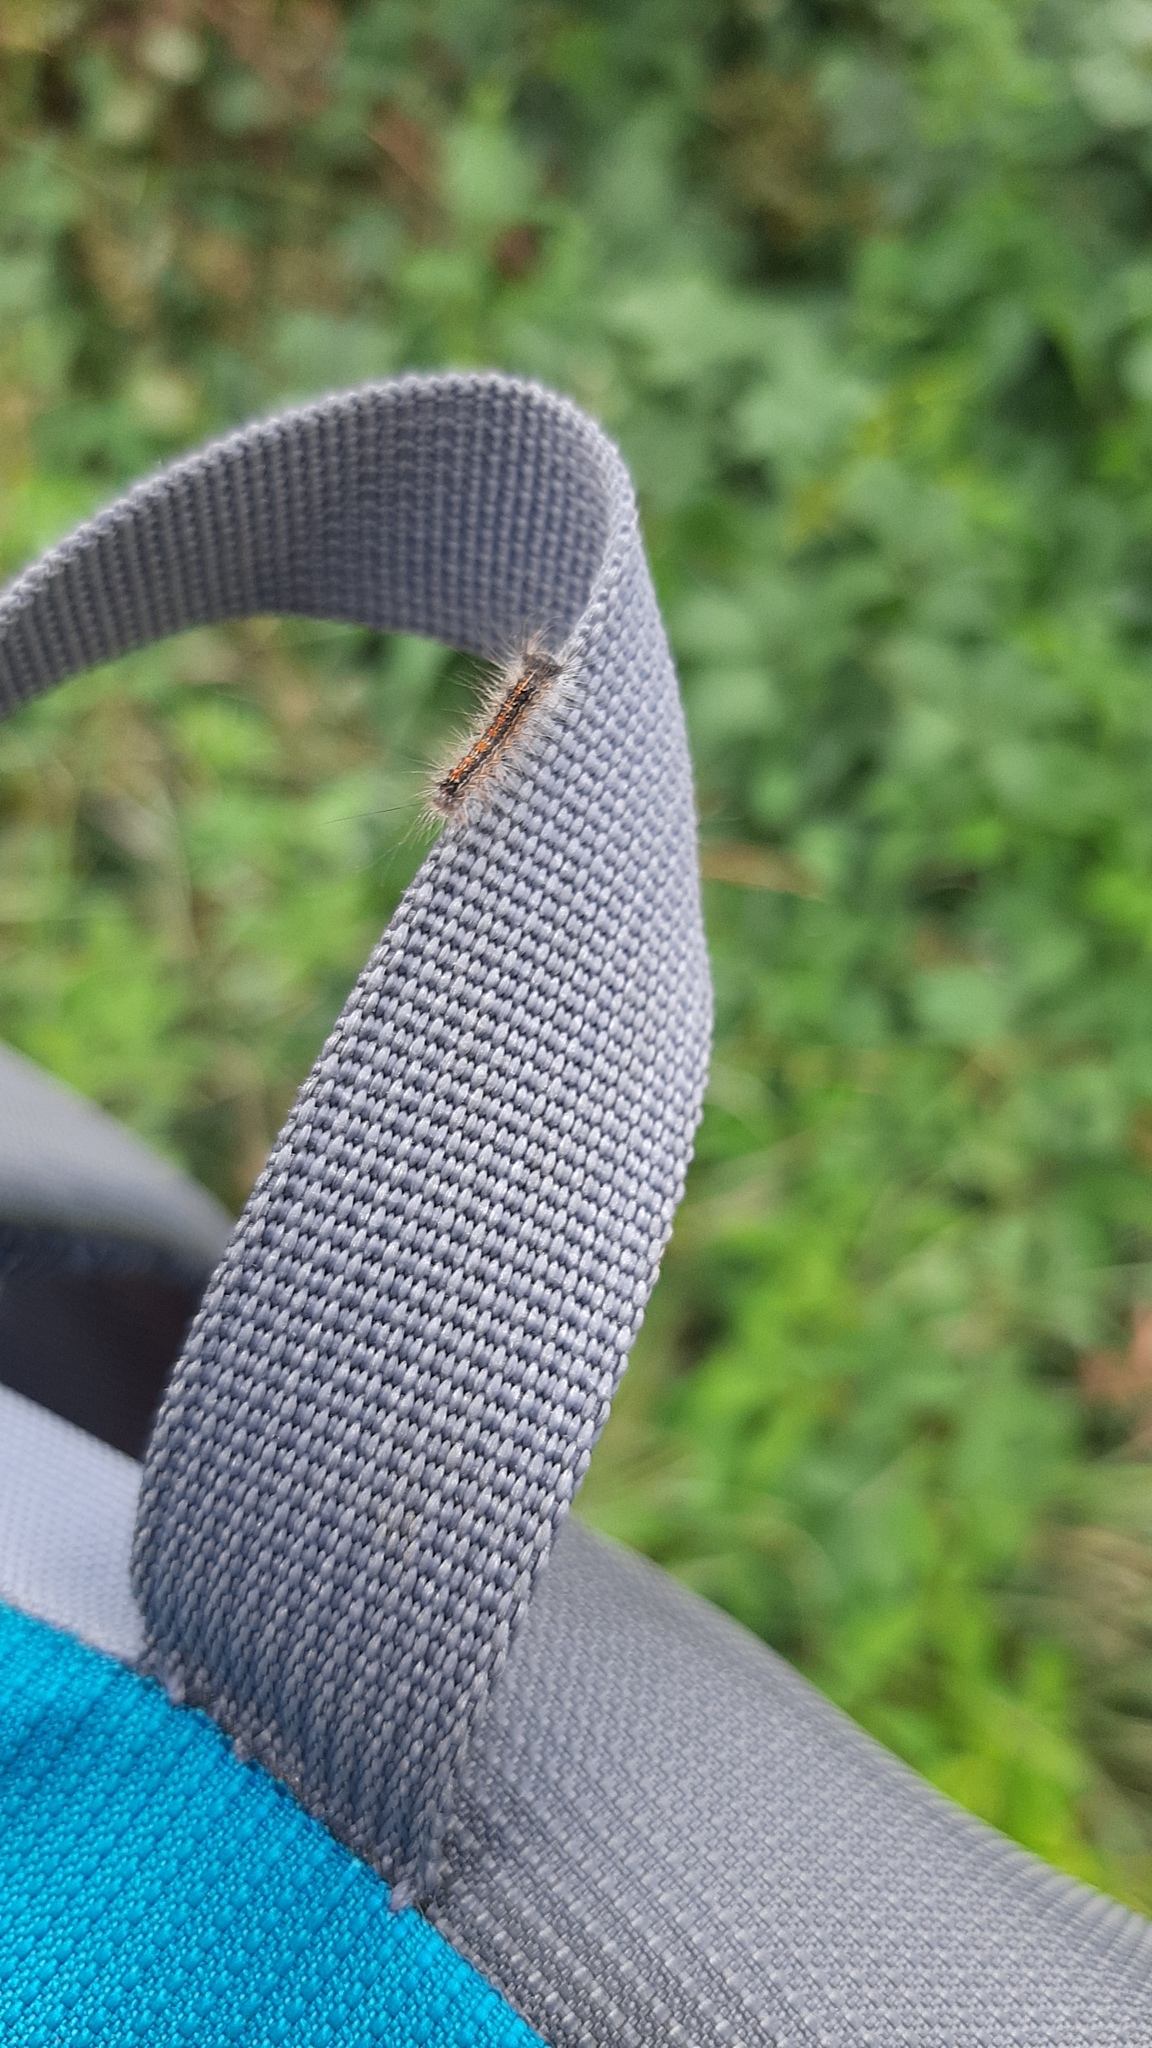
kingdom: Animalia
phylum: Arthropoda
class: Insecta
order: Lepidoptera
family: Erebidae
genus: Lymantria
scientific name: Lymantria dispar
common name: Gypsy moth
